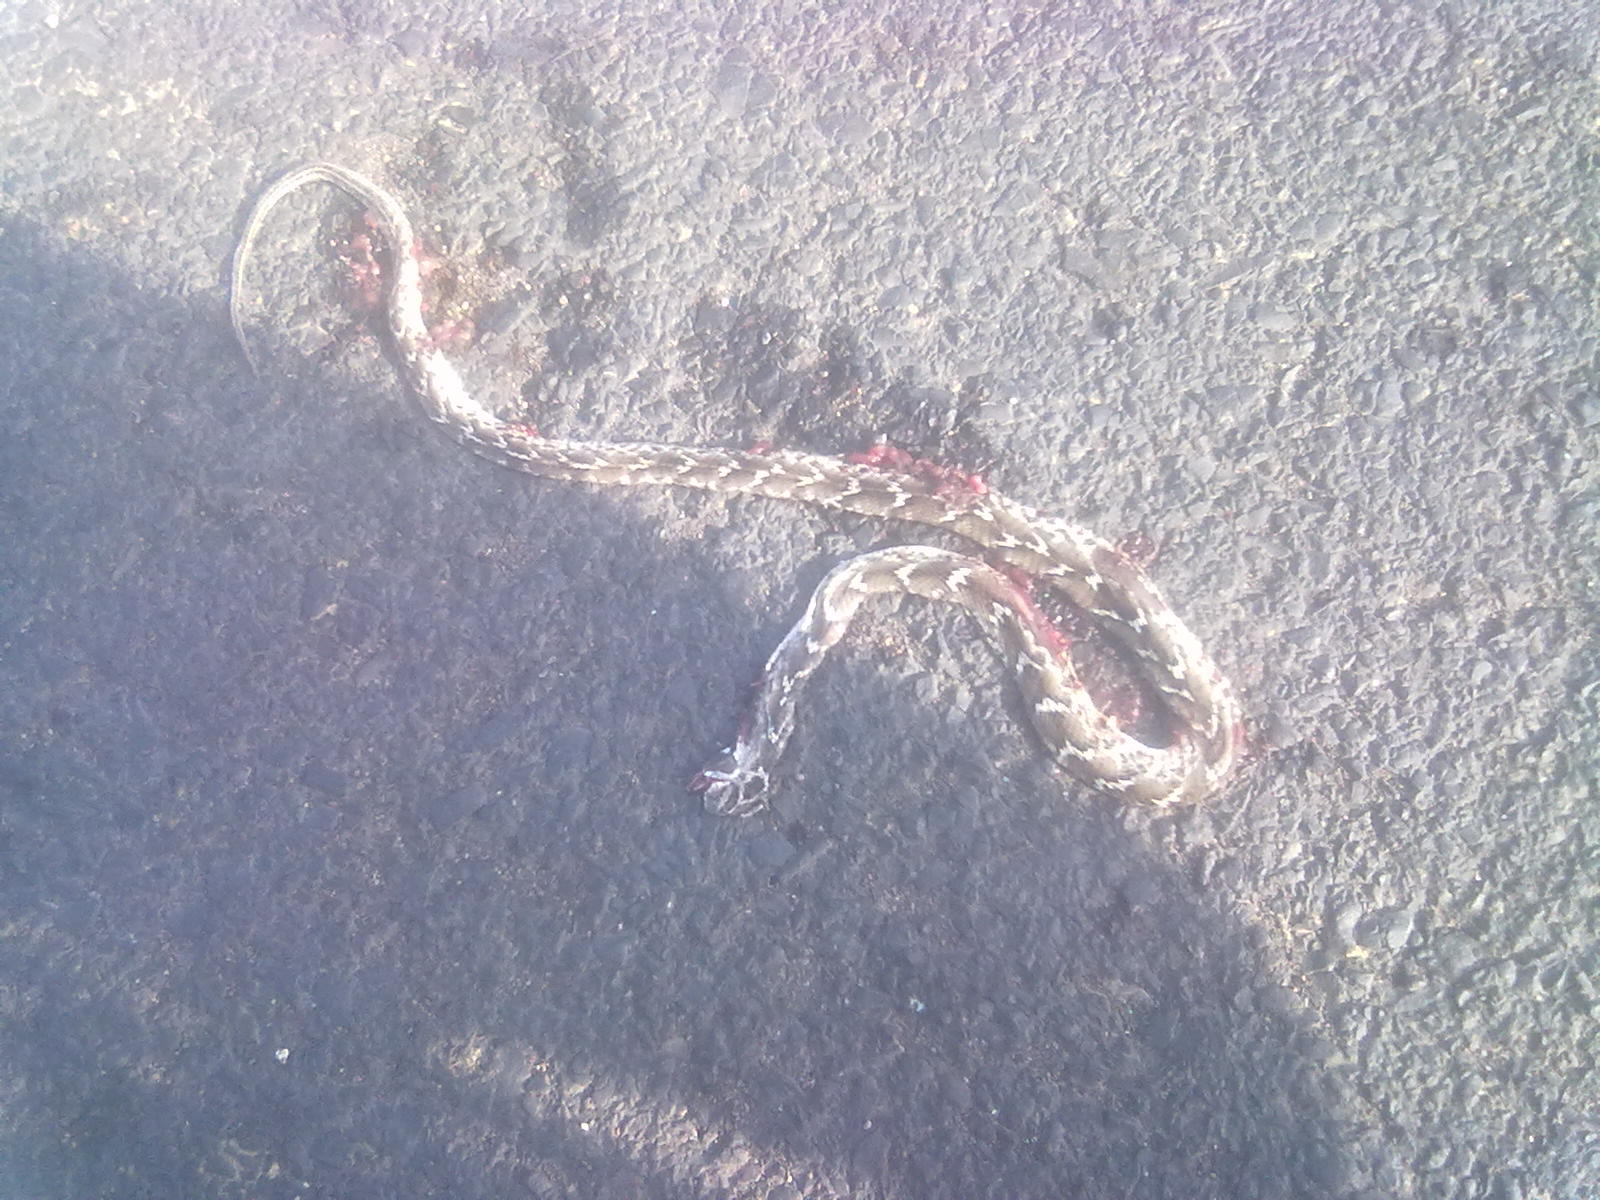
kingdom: Animalia
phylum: Chordata
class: Squamata
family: Colubridae
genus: Boiga
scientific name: Boiga trigonata
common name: Common cat snake
